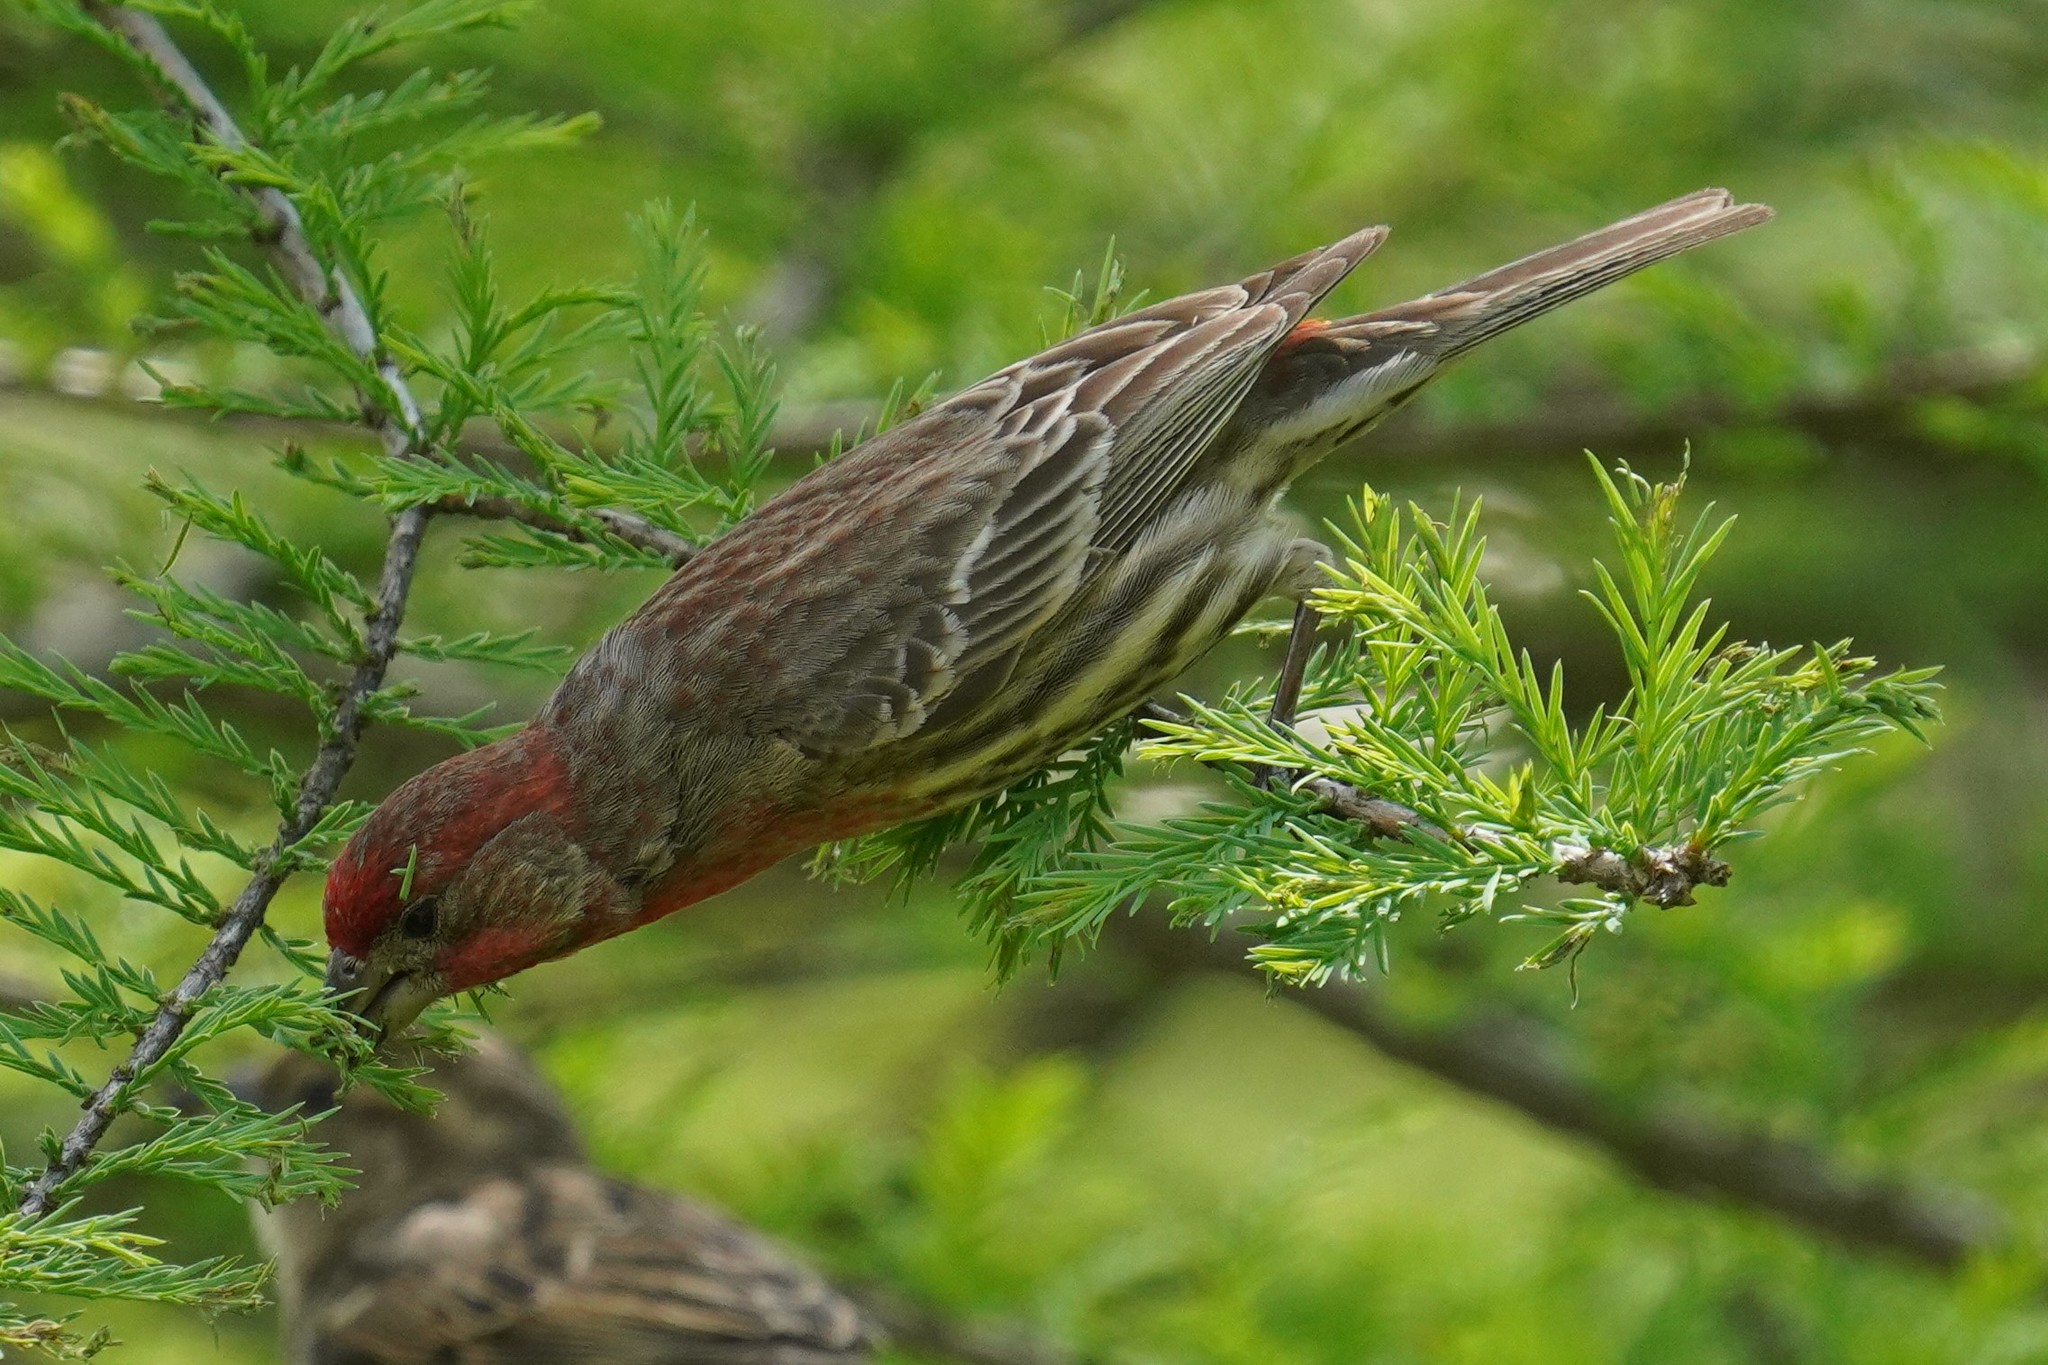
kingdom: Animalia
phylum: Chordata
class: Aves
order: Passeriformes
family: Fringillidae
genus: Haemorhous
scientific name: Haemorhous mexicanus
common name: House finch
